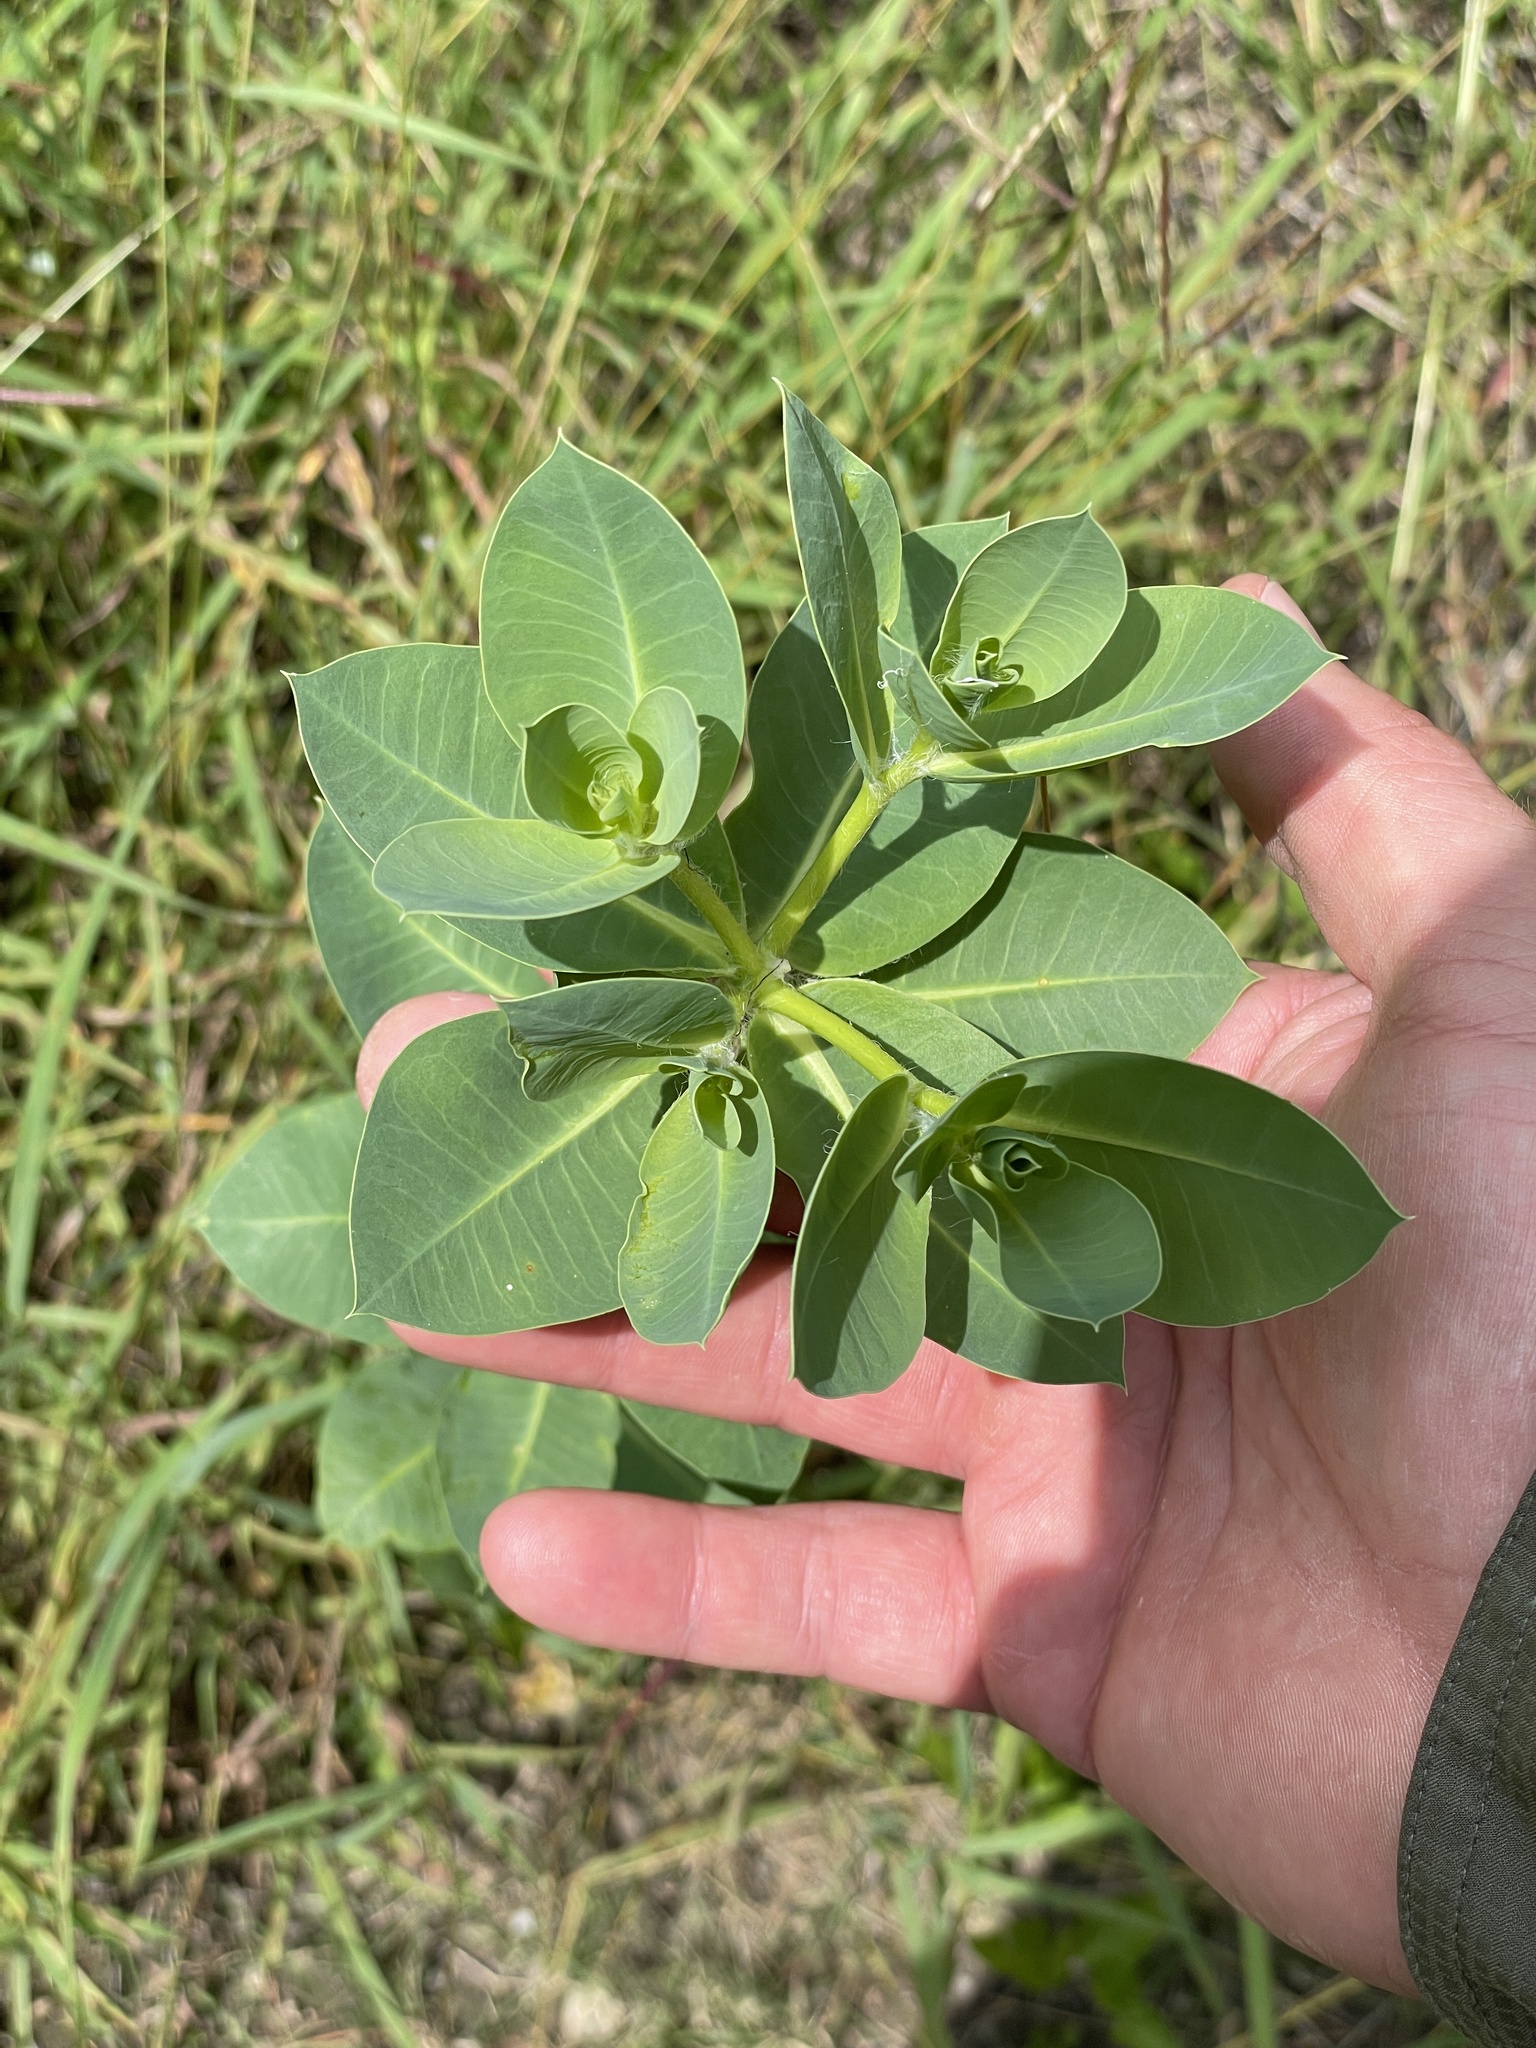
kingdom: Plantae
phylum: Tracheophyta
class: Magnoliopsida
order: Malpighiales
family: Euphorbiaceae
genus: Euphorbia
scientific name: Euphorbia marginata
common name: Ghostweed
